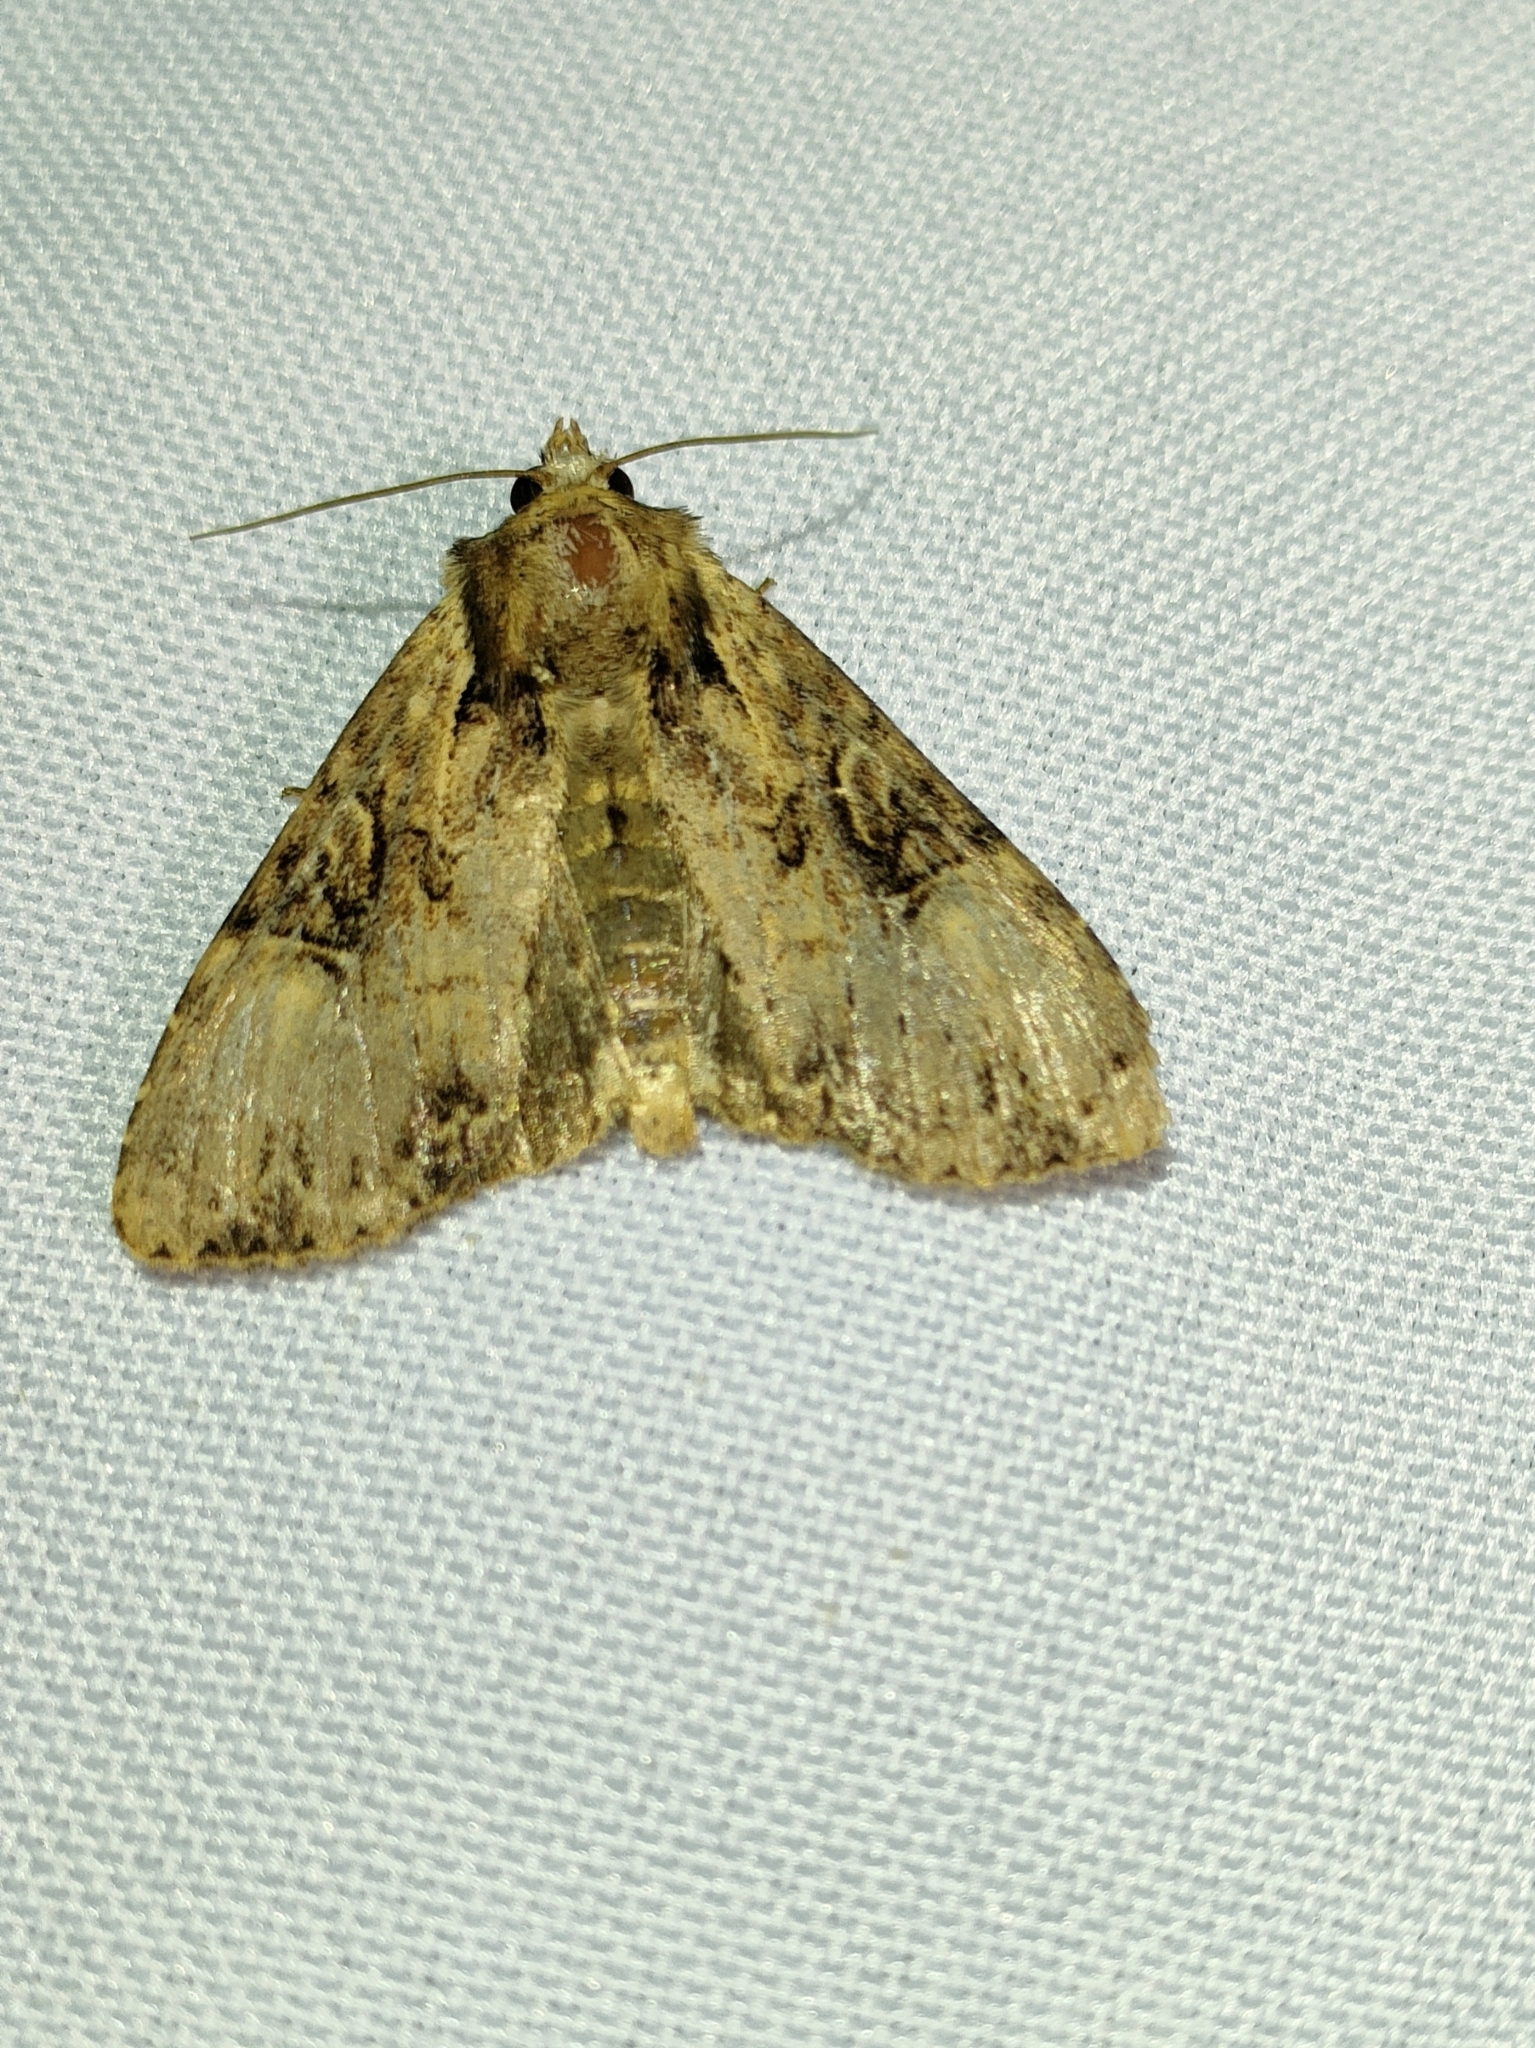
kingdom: Animalia
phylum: Arthropoda
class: Insecta
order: Lepidoptera
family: Noctuidae
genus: Apamea
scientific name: Apamea epomidion
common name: Clouded brindle
